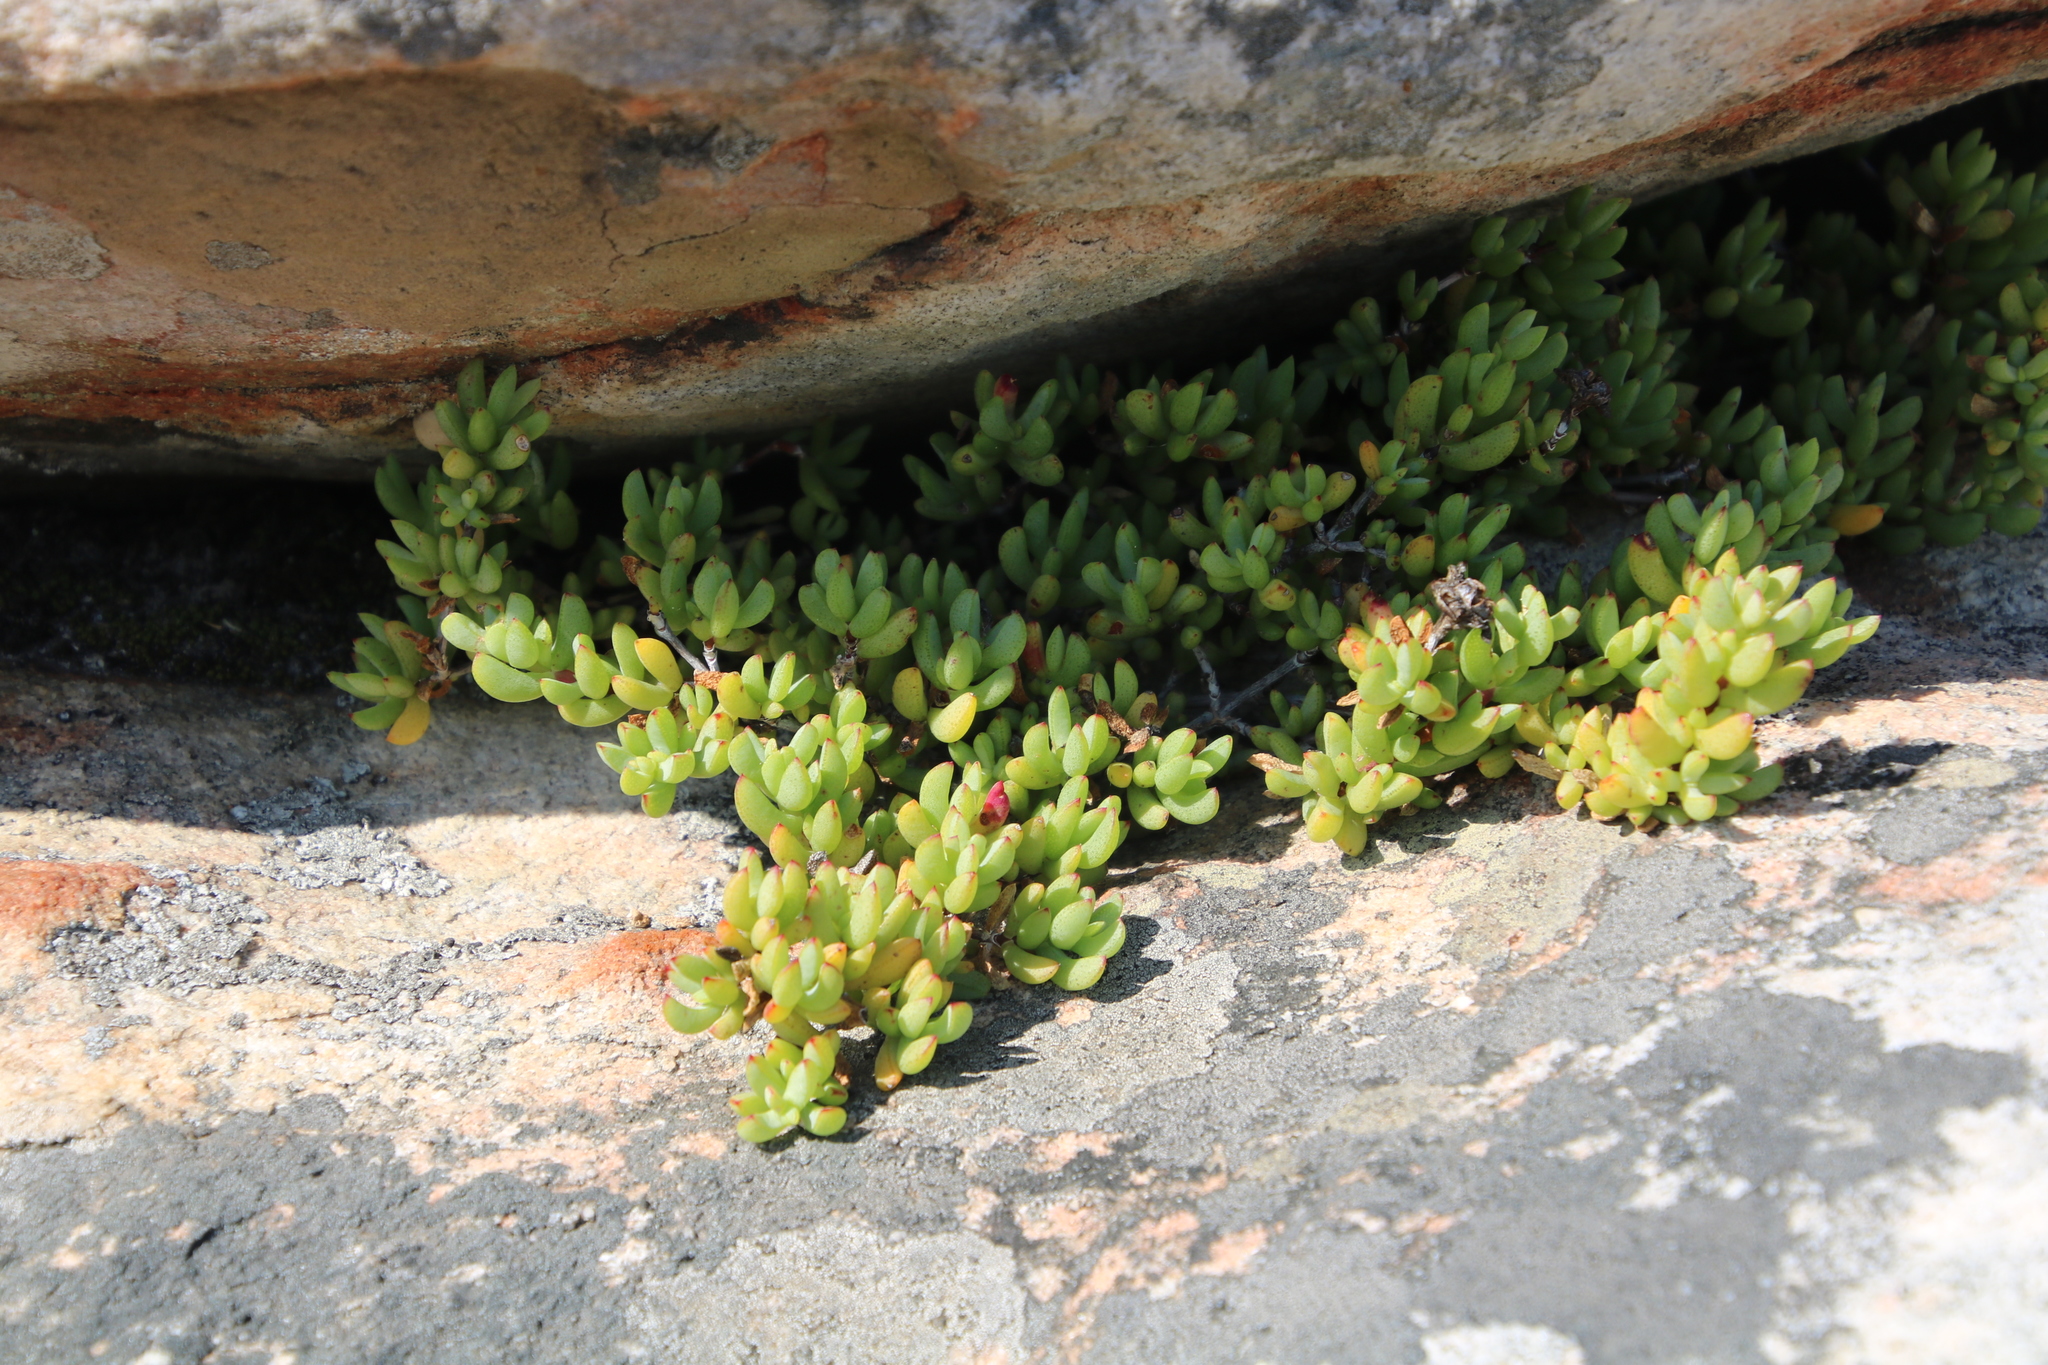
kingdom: Plantae
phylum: Tracheophyta
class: Magnoliopsida
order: Caryophyllales
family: Aizoaceae
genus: Oscularia
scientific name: Oscularia falciformis
